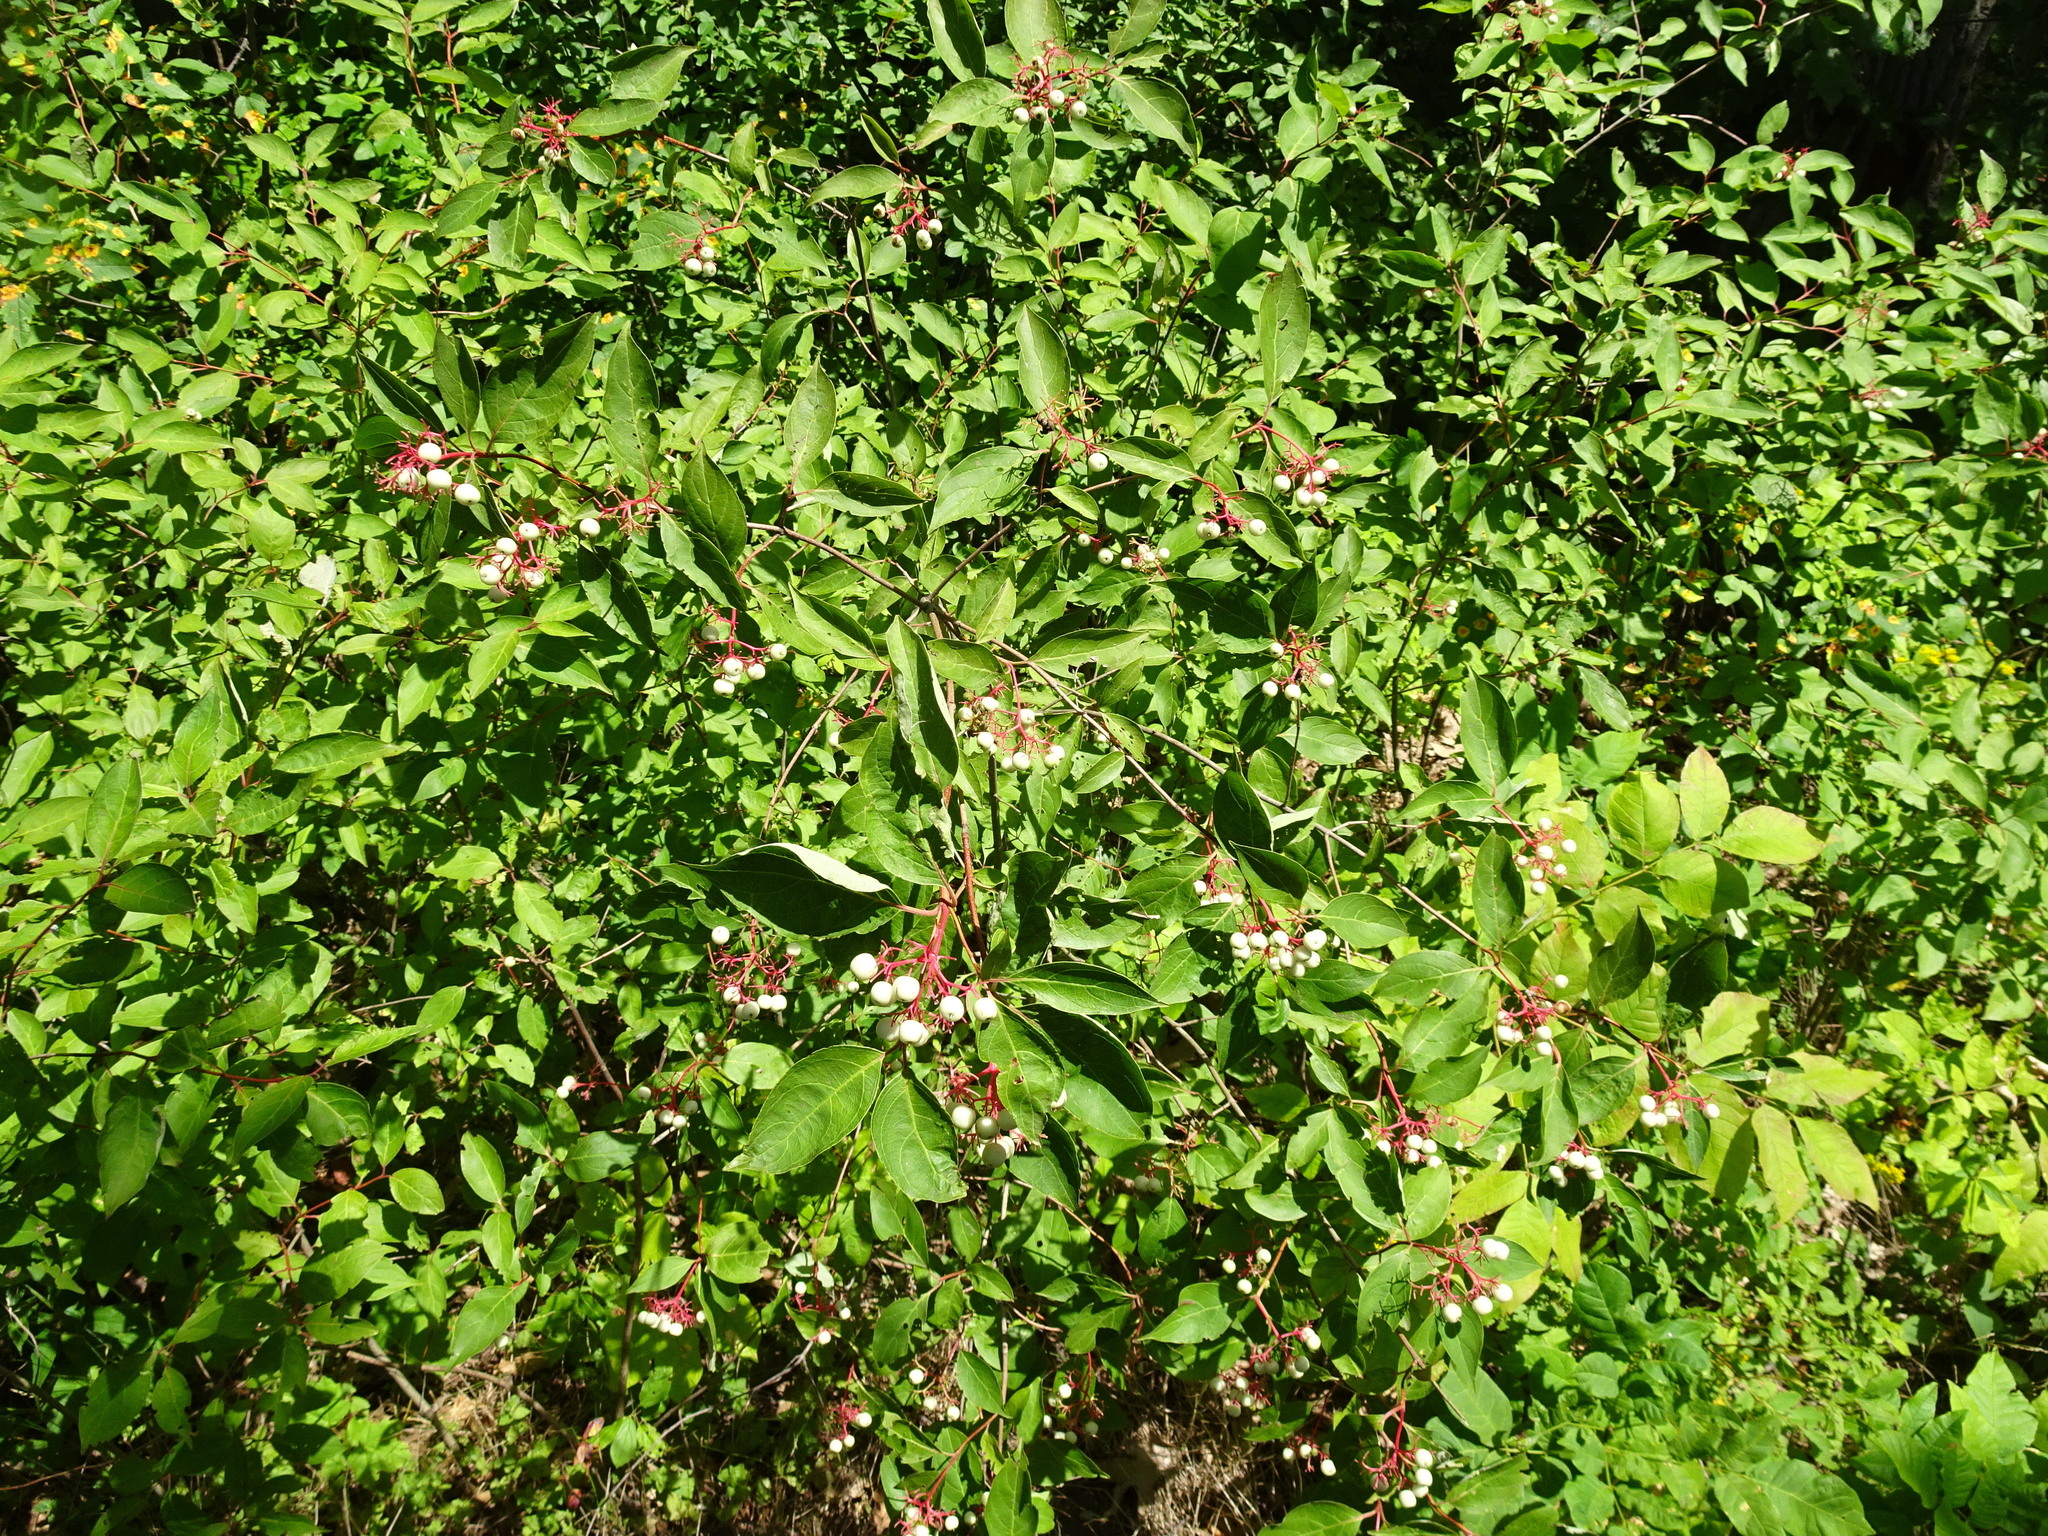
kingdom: Plantae
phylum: Tracheophyta
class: Magnoliopsida
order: Cornales
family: Cornaceae
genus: Cornus
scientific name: Cornus racemosa
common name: Panicled dogwood
